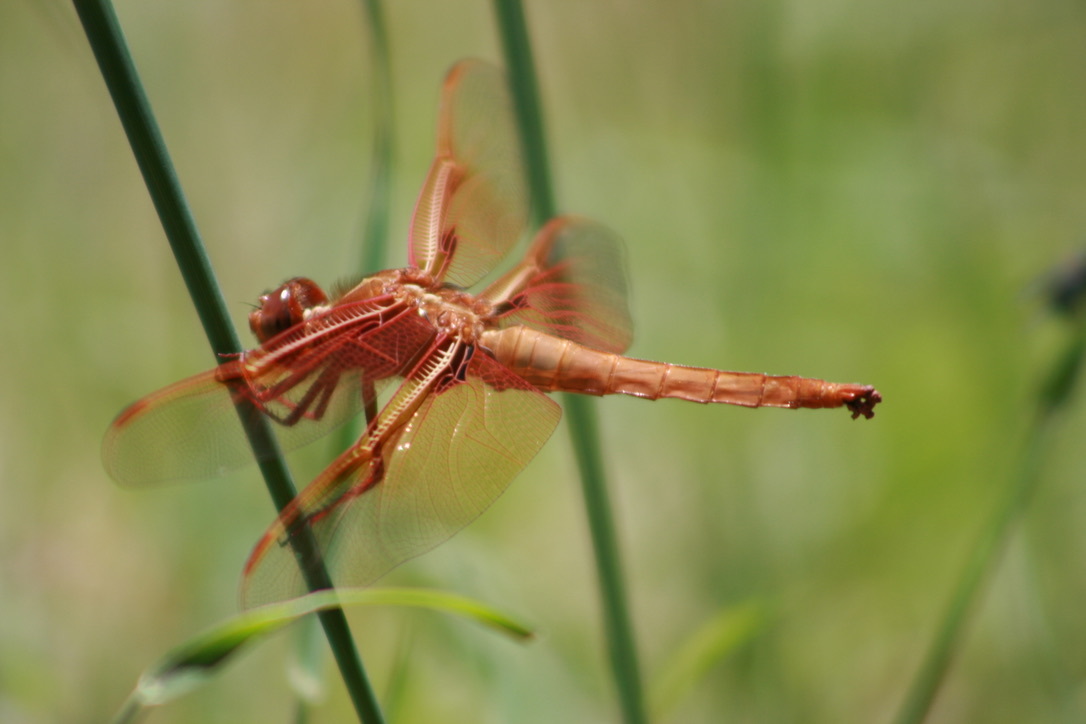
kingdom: Animalia
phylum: Arthropoda
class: Insecta
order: Odonata
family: Libellulidae
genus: Libellula
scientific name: Libellula saturata
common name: Flame skimmer
